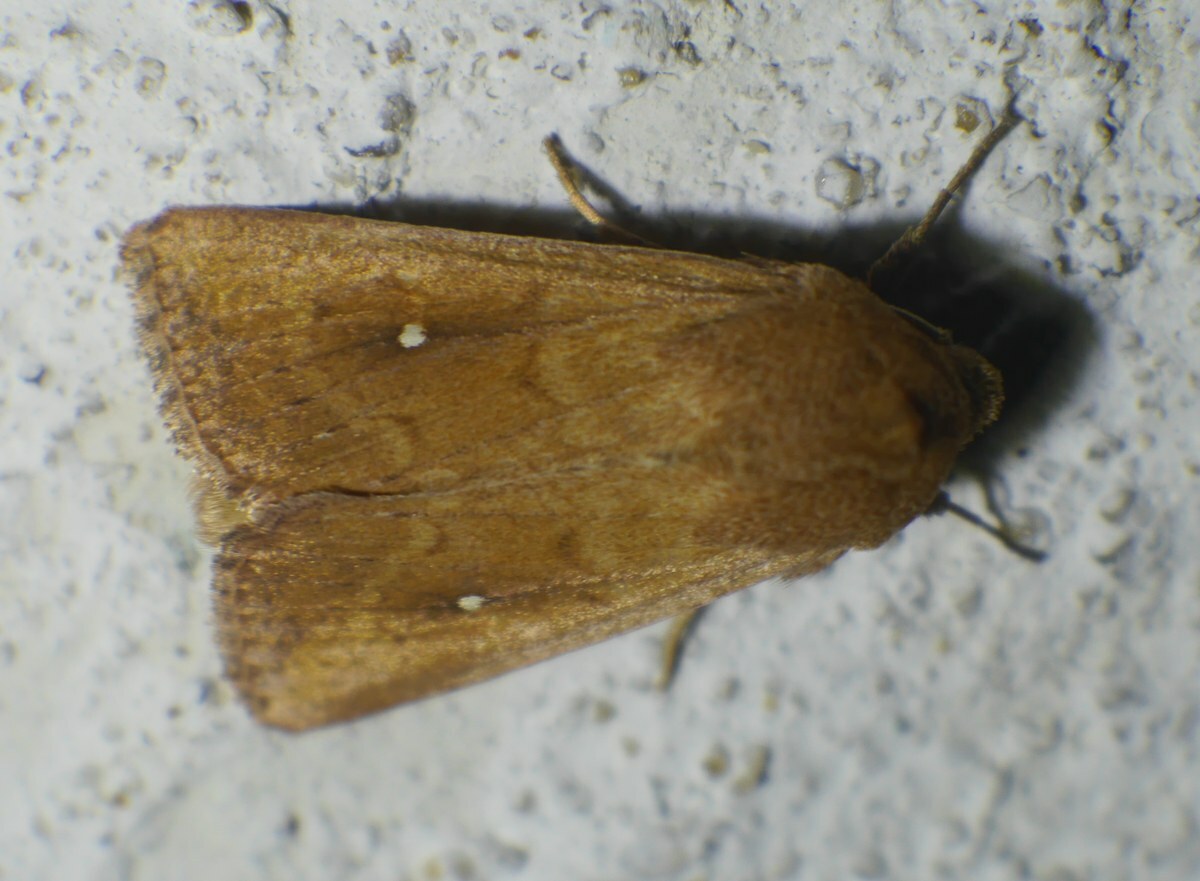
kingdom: Animalia
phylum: Arthropoda
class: Insecta
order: Lepidoptera
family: Noctuidae
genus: Mythimna
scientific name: Mythimna albipuncta
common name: White-point
